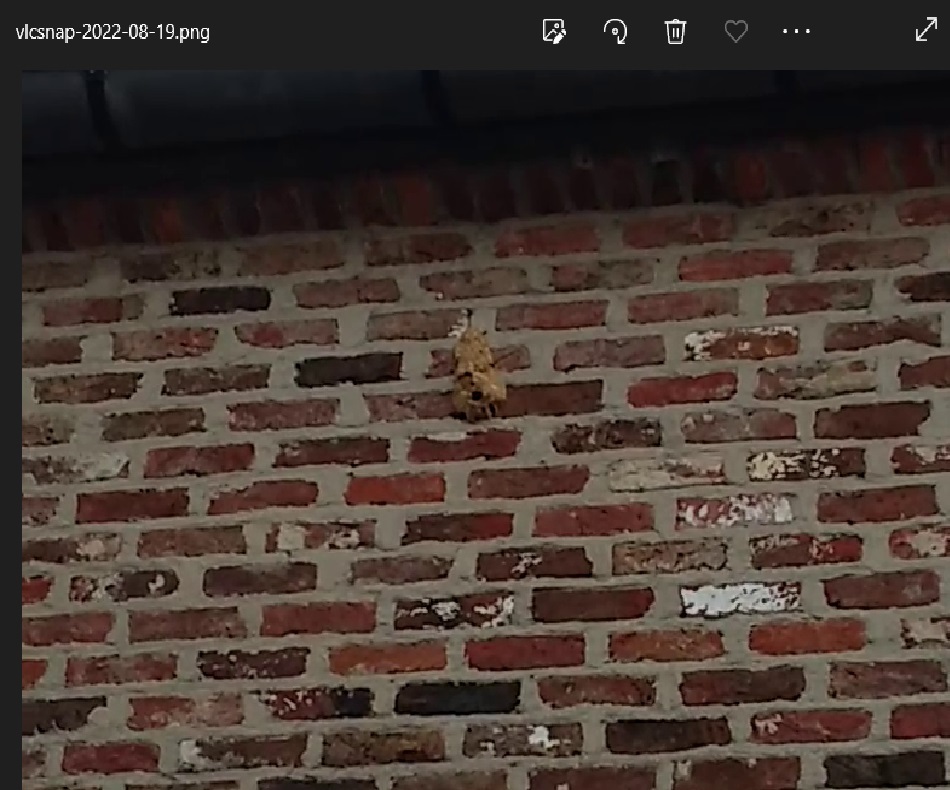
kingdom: Animalia
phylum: Arthropoda
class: Insecta
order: Hymenoptera
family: Vespidae
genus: Vespa
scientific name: Vespa velutina
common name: Asian hornet
